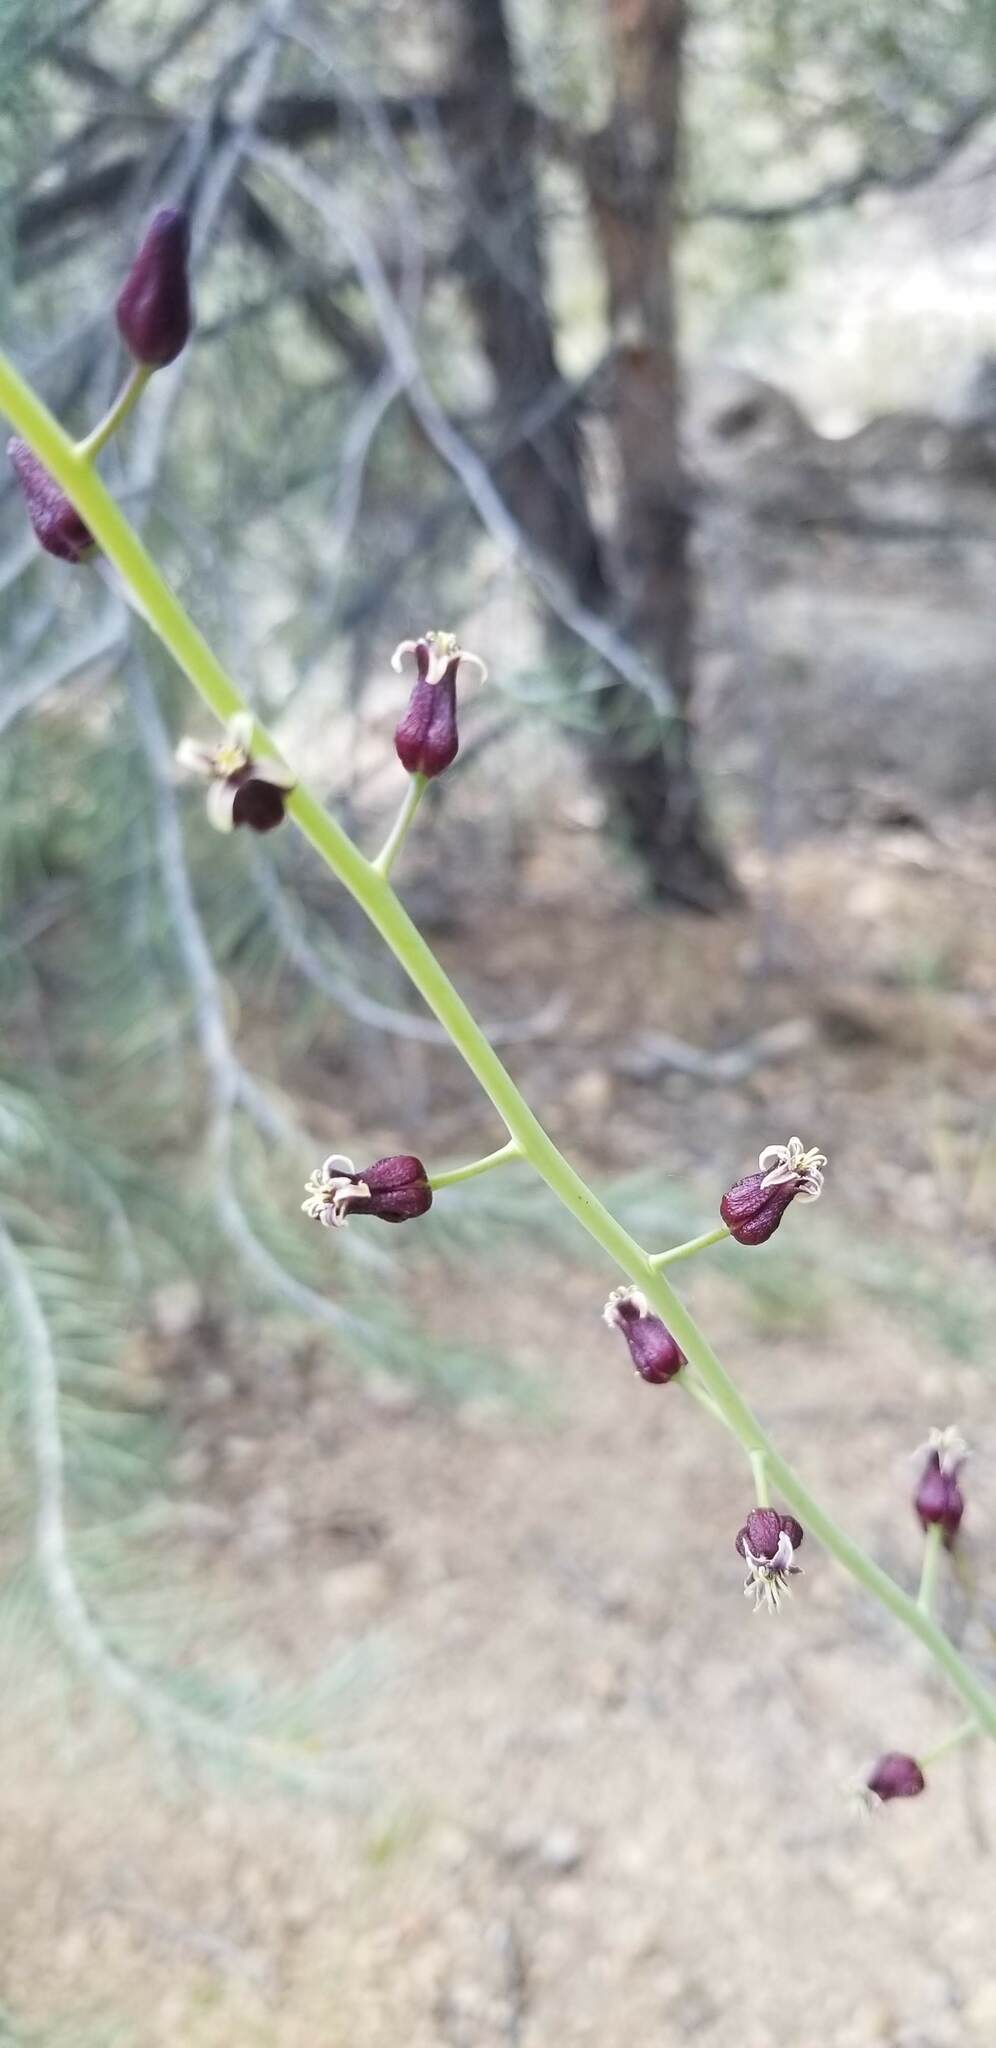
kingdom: Plantae
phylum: Tracheophyta
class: Magnoliopsida
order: Brassicales
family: Brassicaceae
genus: Streptanthus
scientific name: Streptanthus pilosus
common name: Chocolate drops
